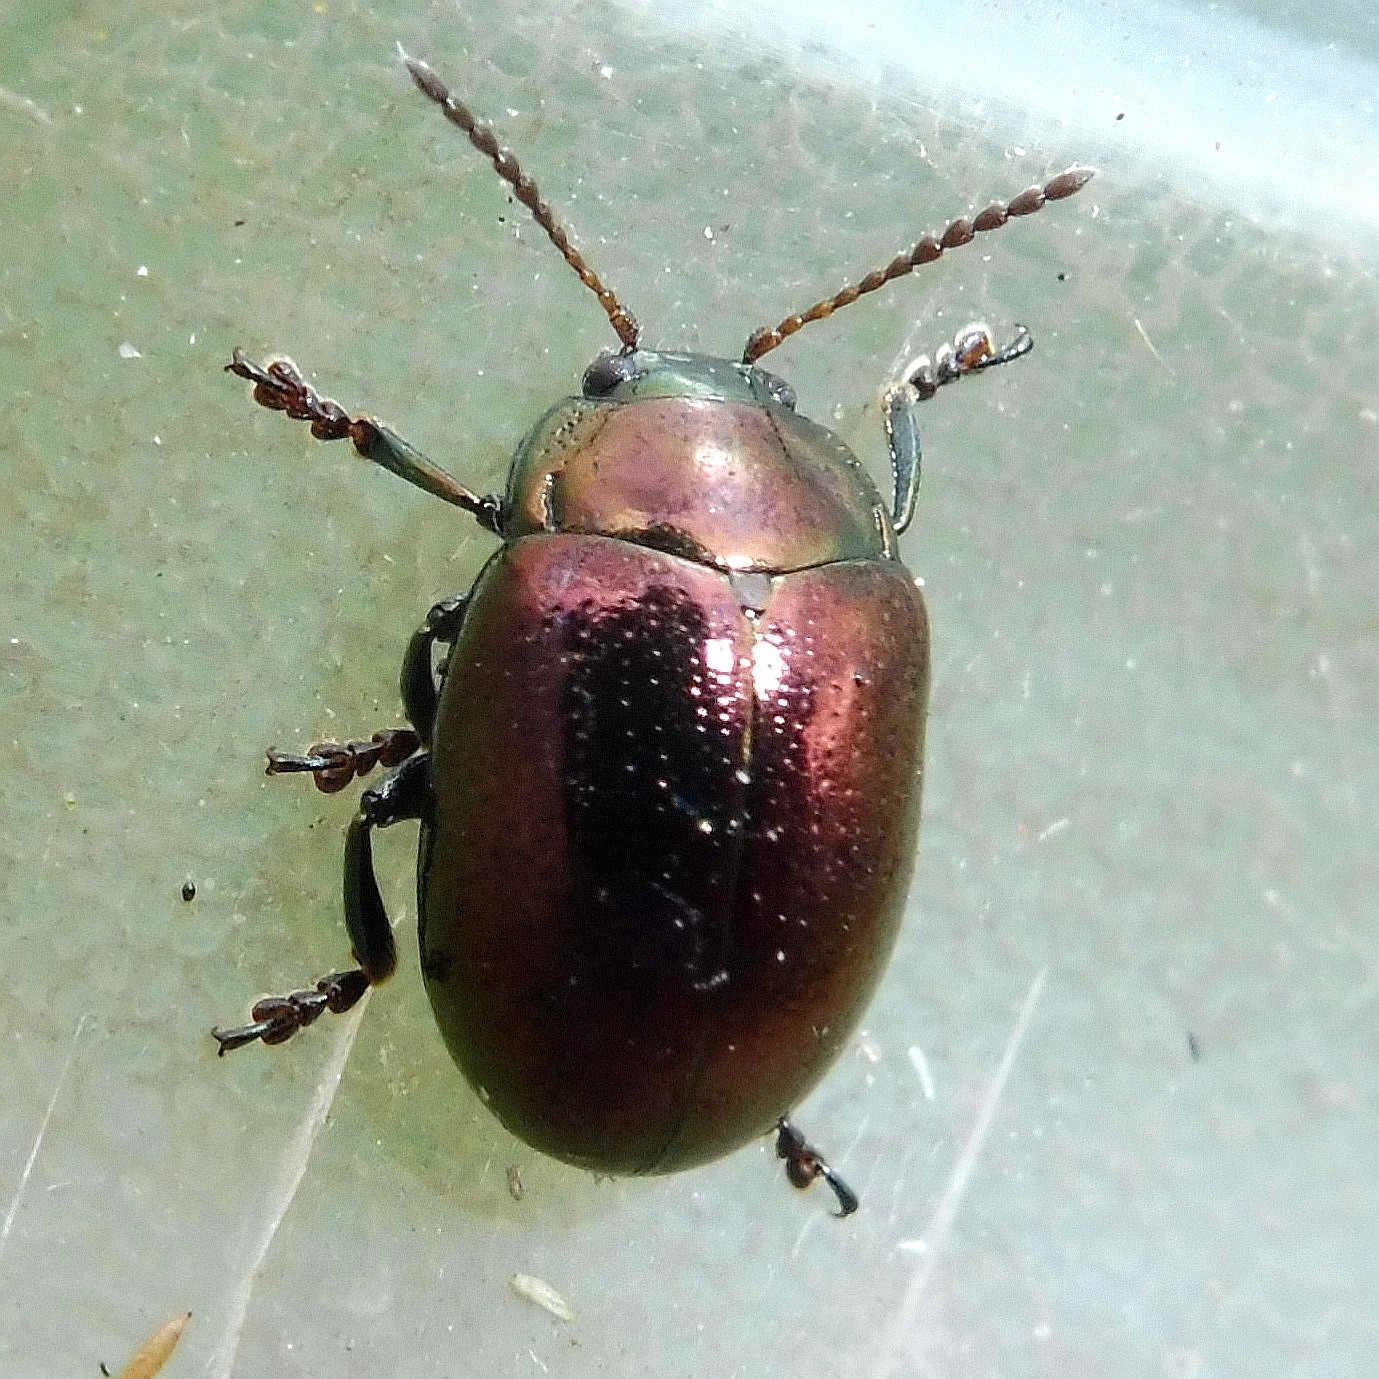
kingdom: Animalia
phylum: Arthropoda
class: Insecta
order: Coleoptera
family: Chrysomelidae
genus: Chrysolina
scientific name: Chrysolina brunsvicensis
